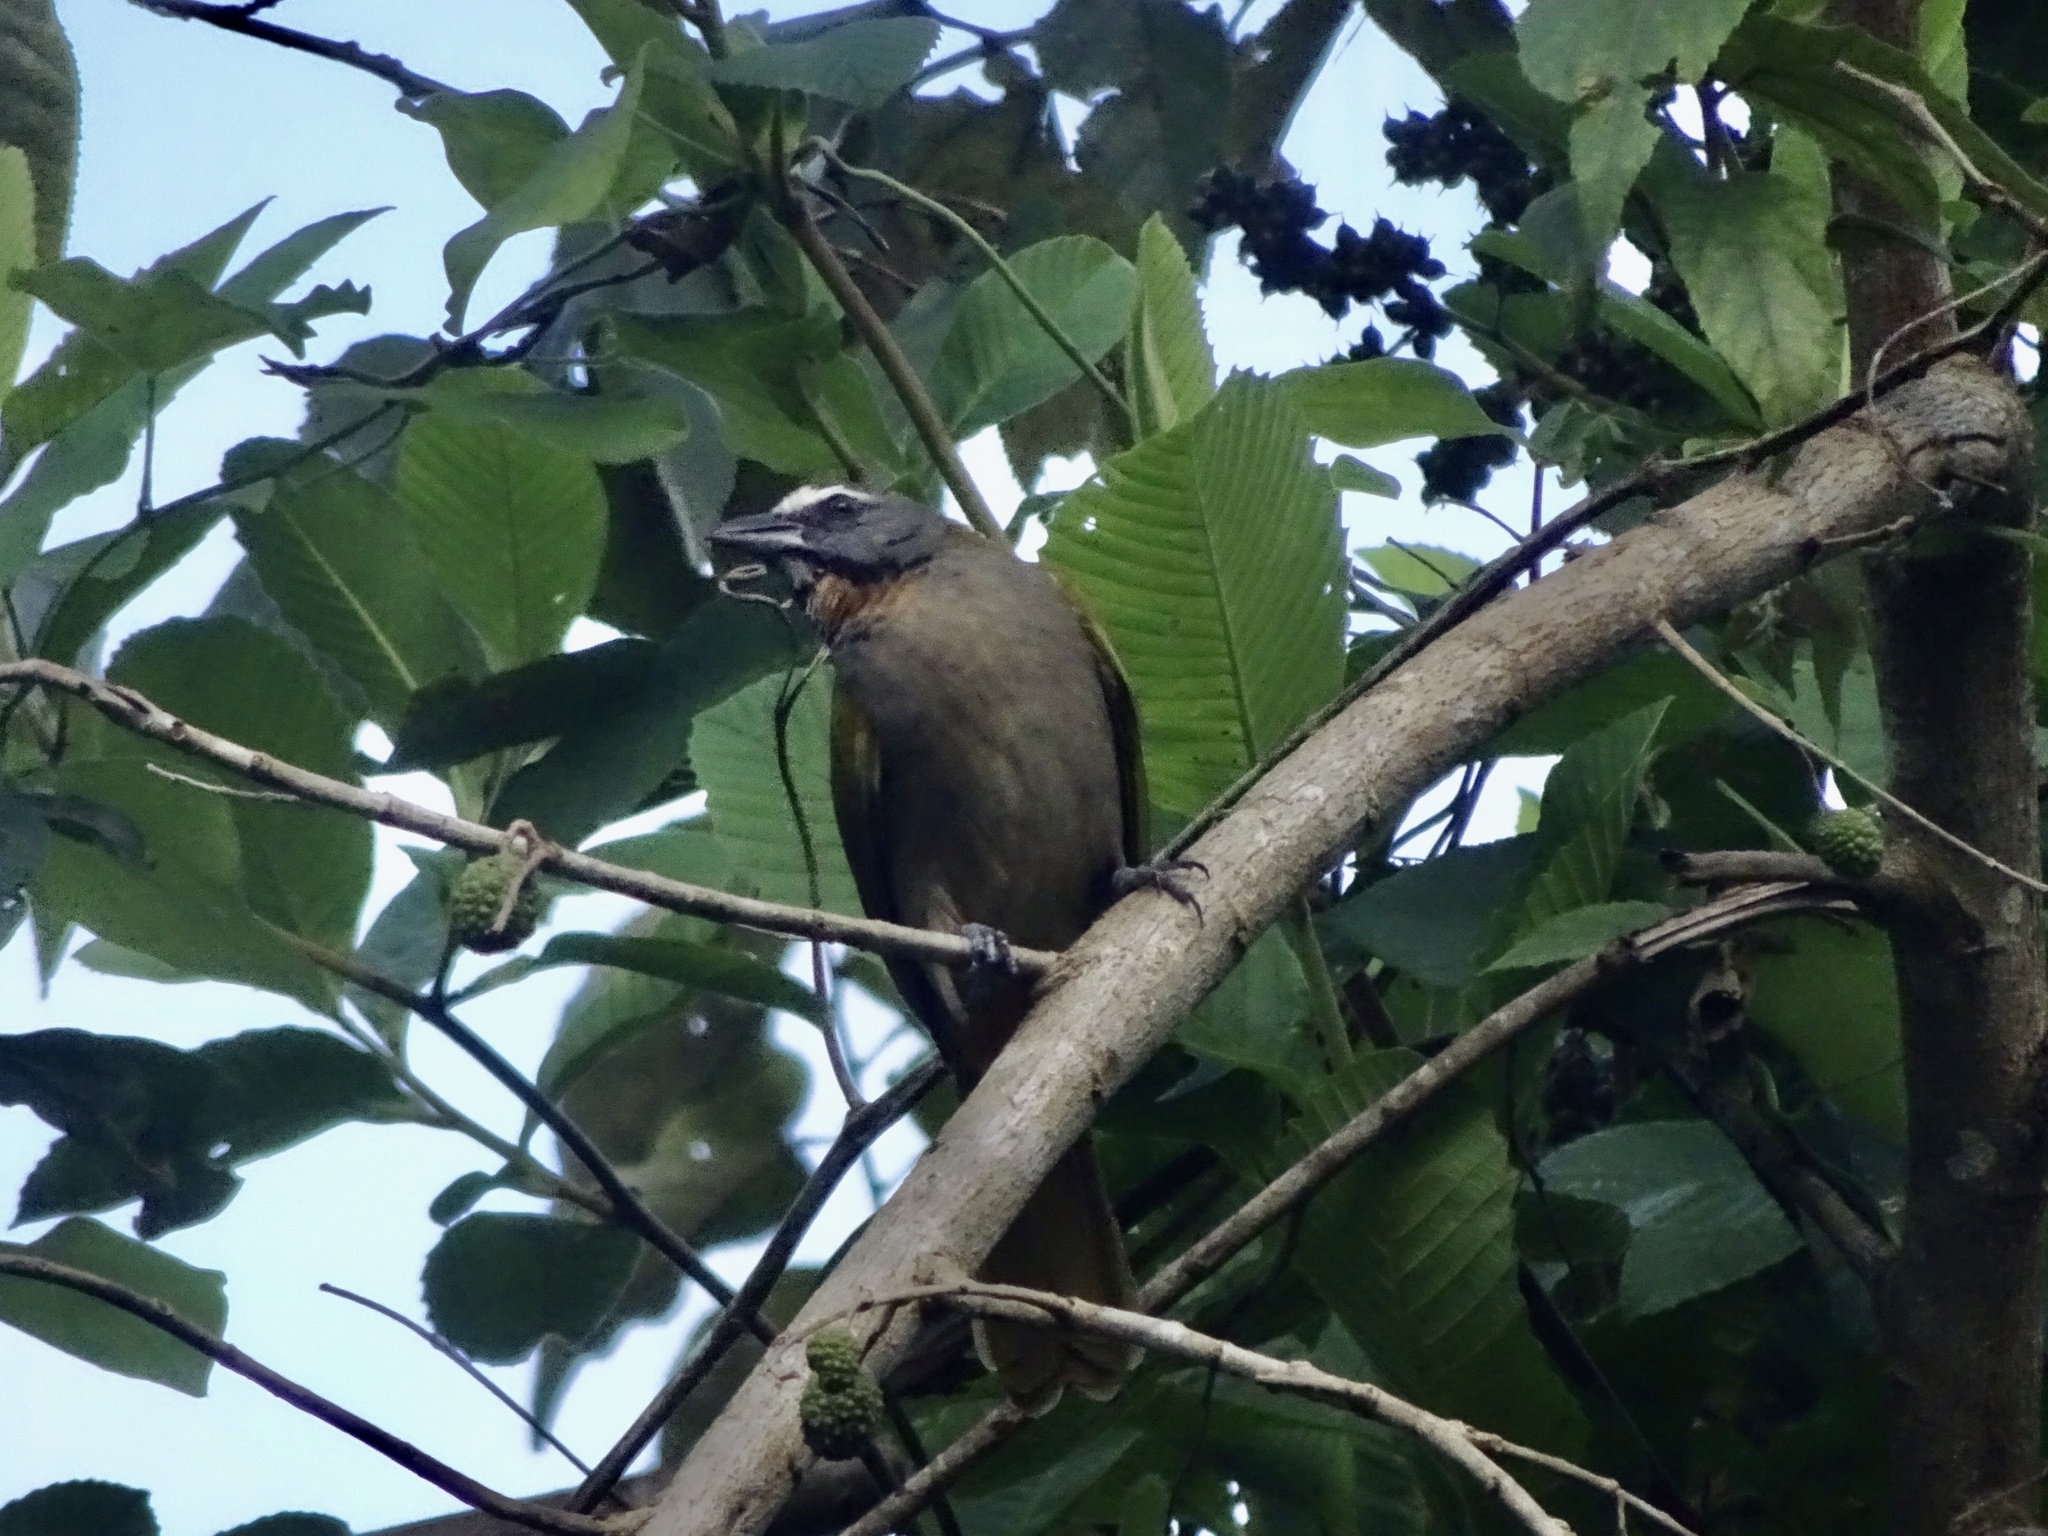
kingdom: Animalia
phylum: Chordata
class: Aves
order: Passeriformes
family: Thraupidae
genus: Saltator
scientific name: Saltator maximus
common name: Buff-throated saltator
